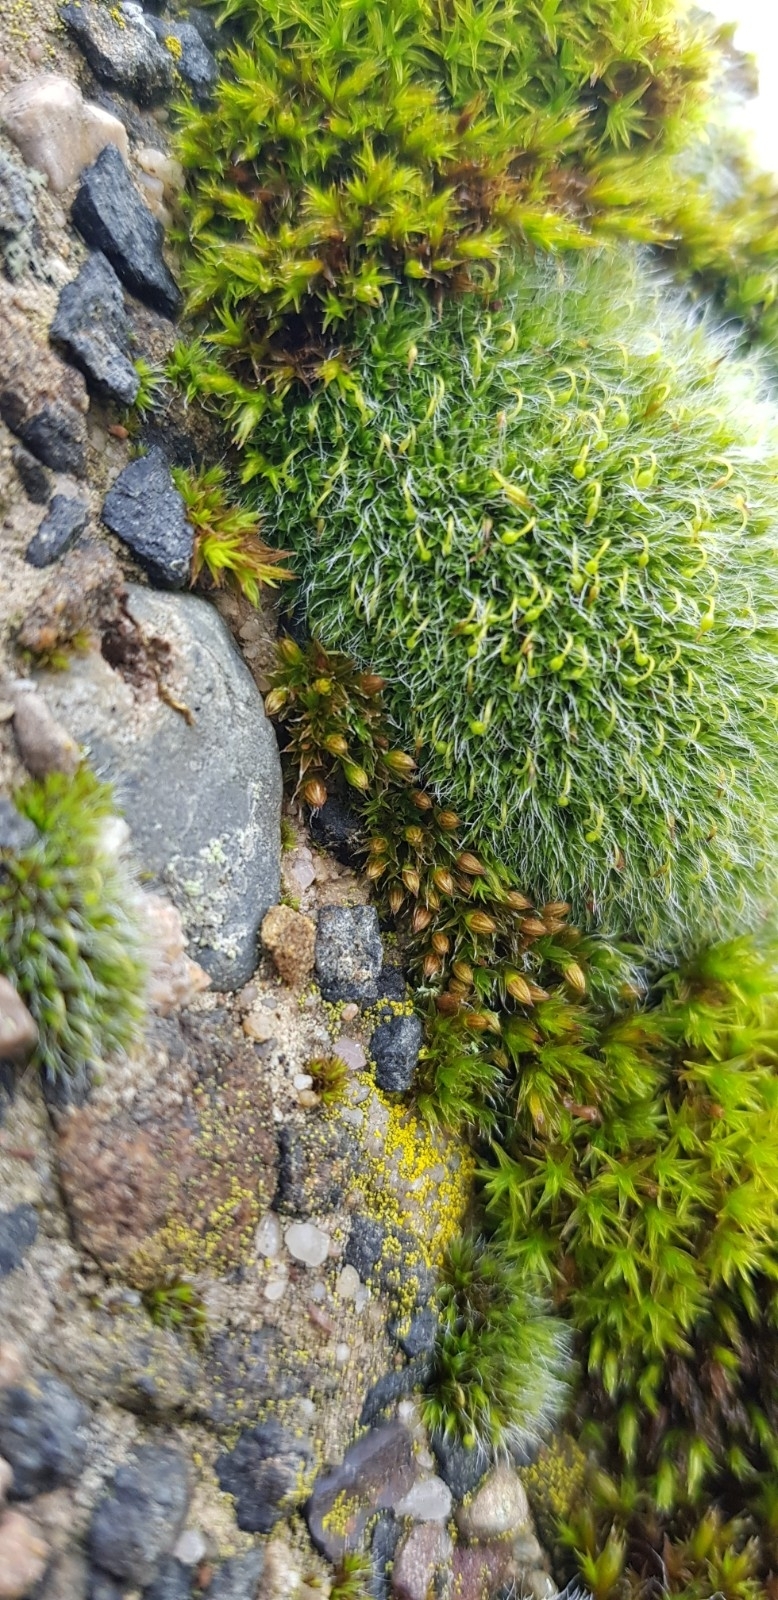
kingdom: Plantae
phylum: Bryophyta
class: Bryopsida
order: Orthotrichales
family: Orthotrichaceae
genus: Orthotrichum
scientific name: Orthotrichum diaphanum
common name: White-tipped bristle-moss
